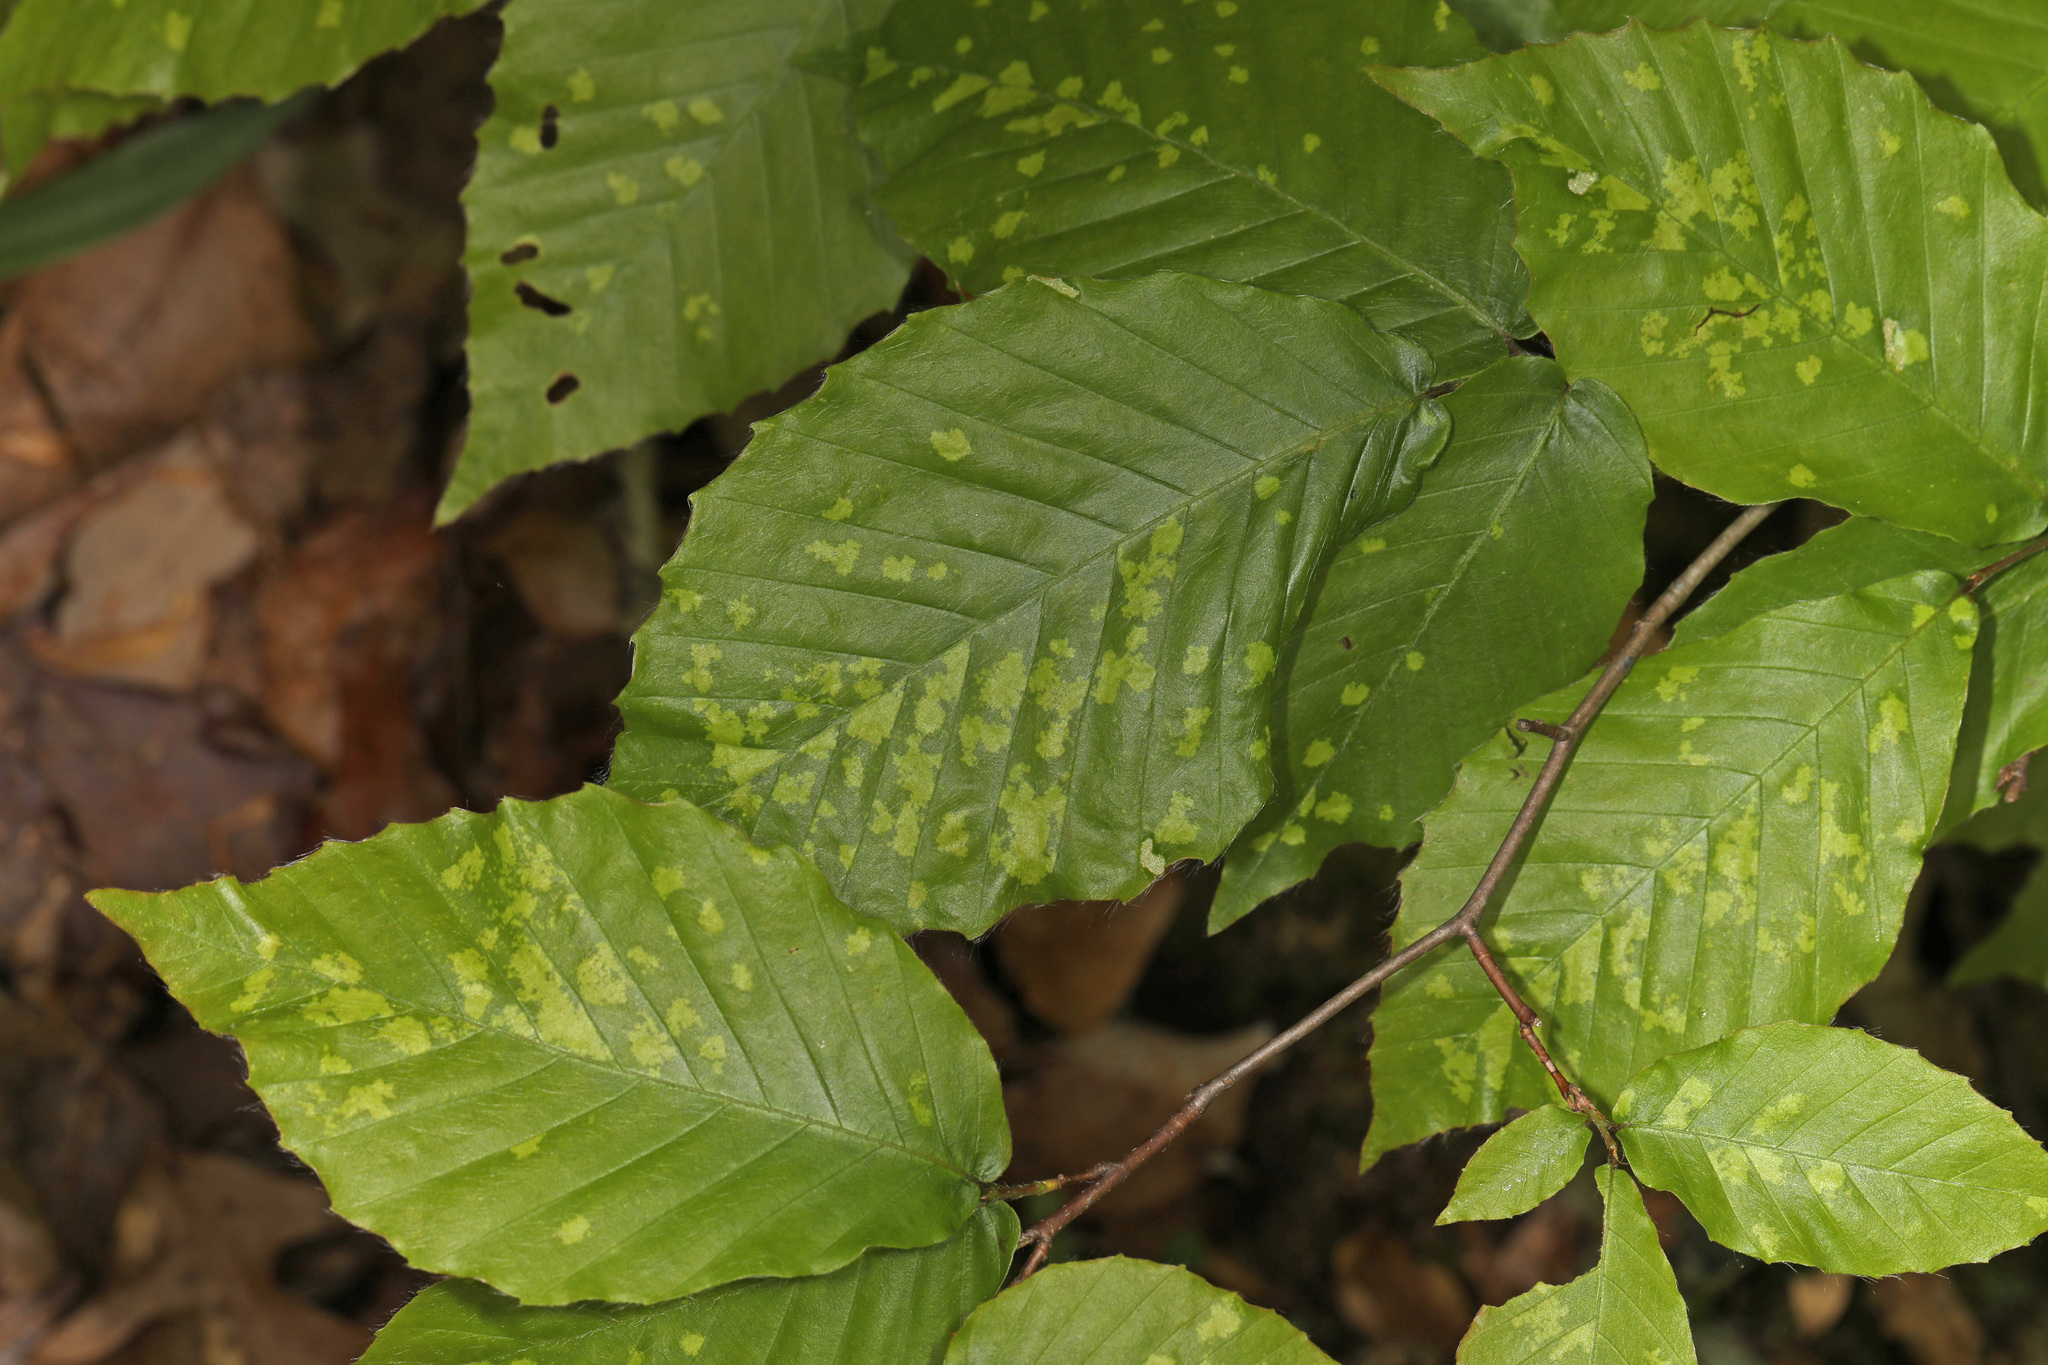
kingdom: Animalia
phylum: Arthropoda
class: Arachnida
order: Trombidiformes
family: Eriophyidae
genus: Acalitus
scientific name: Acalitus
